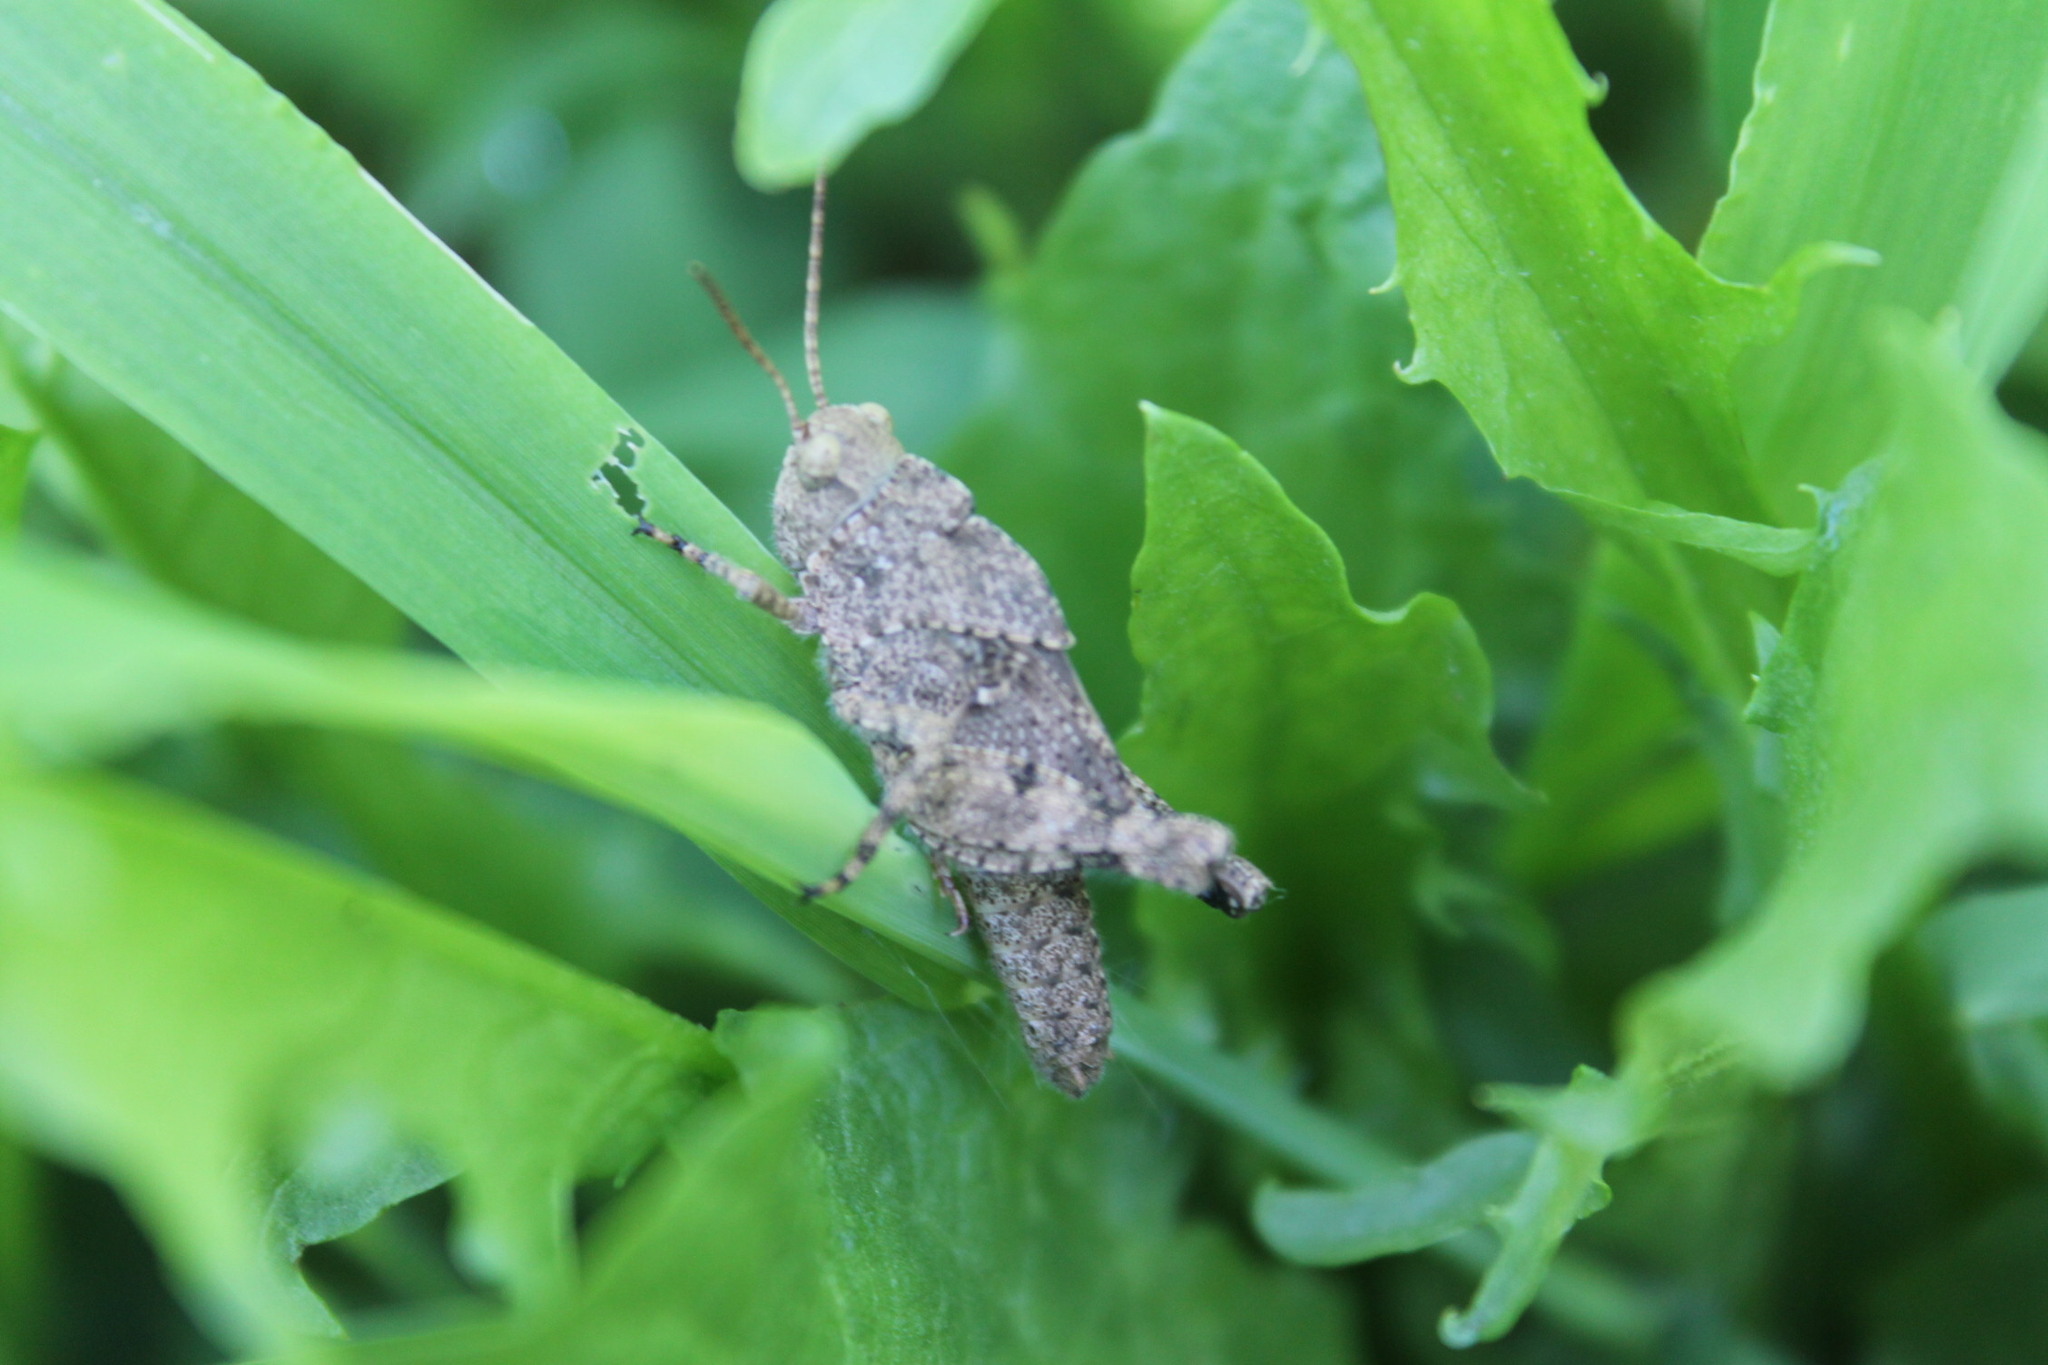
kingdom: Animalia
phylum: Arthropoda
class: Insecta
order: Orthoptera
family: Acrididae
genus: Dissosteira
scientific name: Dissosteira carolina
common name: Carolina grasshopper
